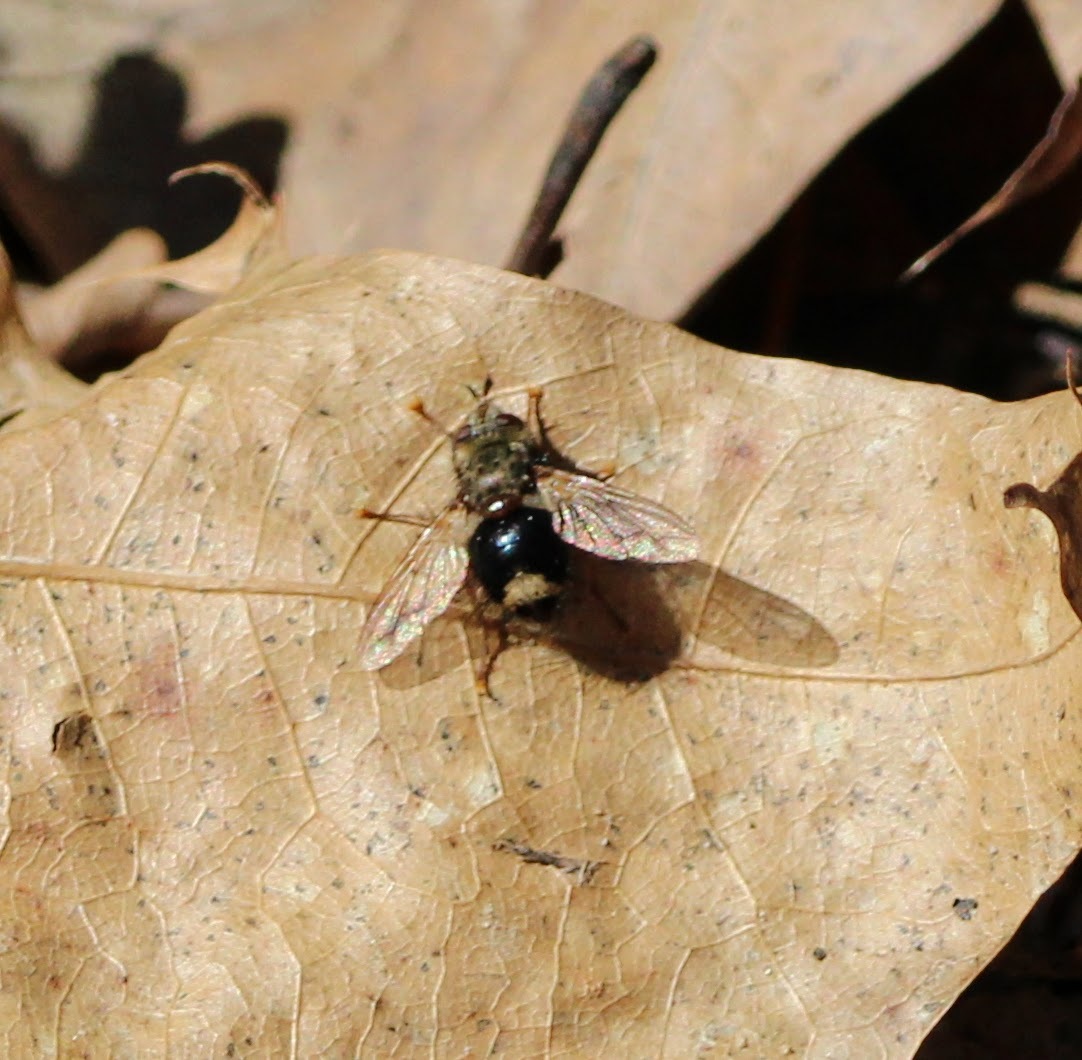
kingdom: Animalia
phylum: Arthropoda
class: Insecta
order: Diptera
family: Tachinidae
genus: Epalpus
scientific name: Epalpus signifer
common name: Early tachinid fly
